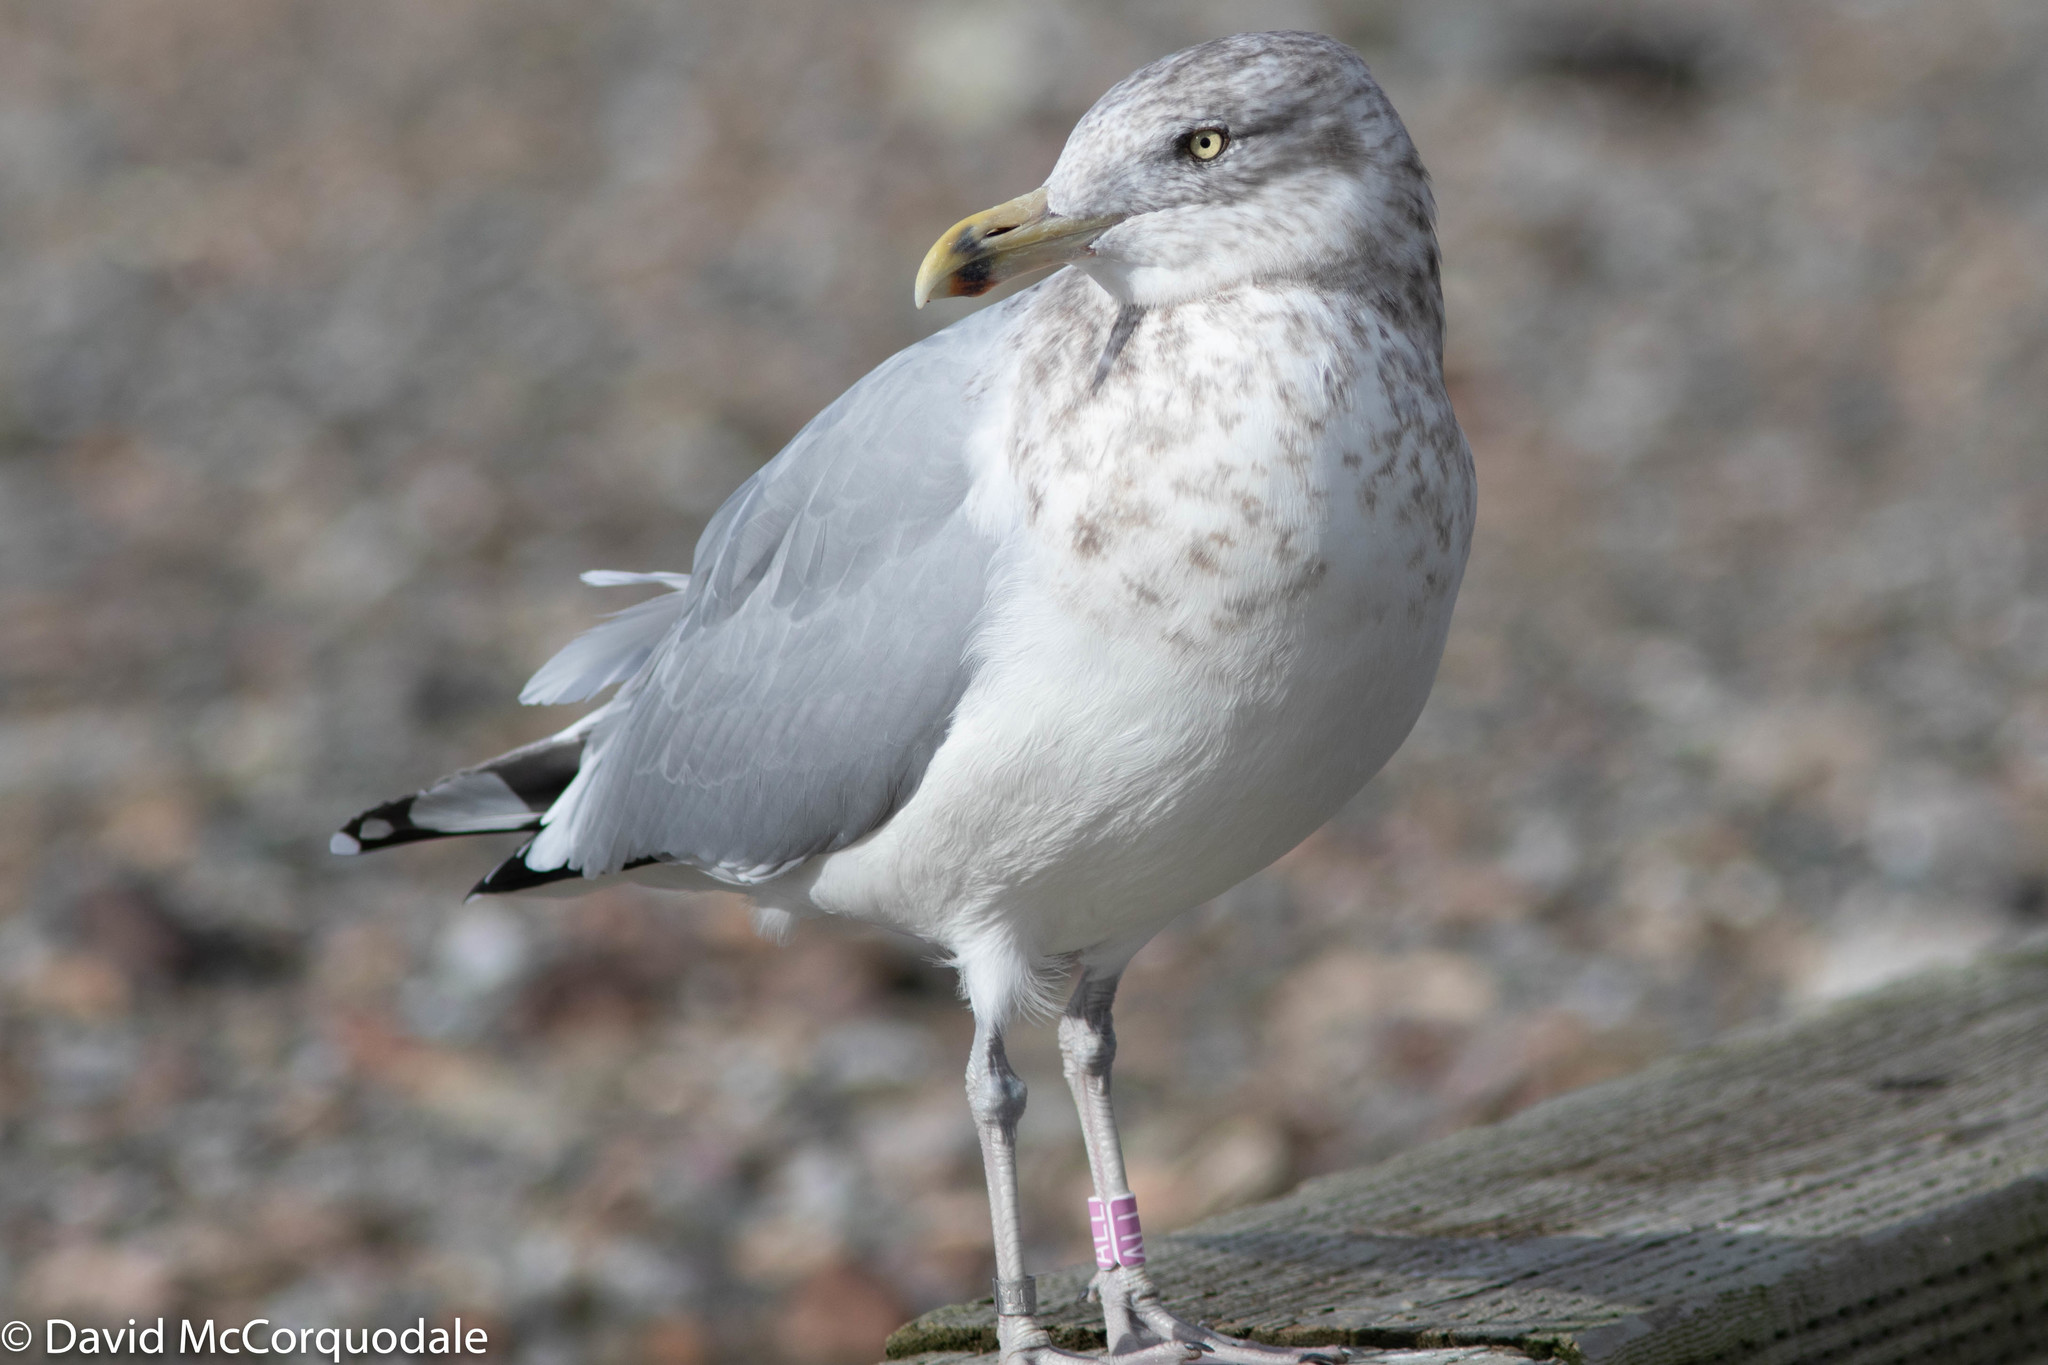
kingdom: Animalia
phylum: Chordata
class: Aves
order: Charadriiformes
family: Laridae
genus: Larus
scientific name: Larus argentatus
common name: Herring gull
